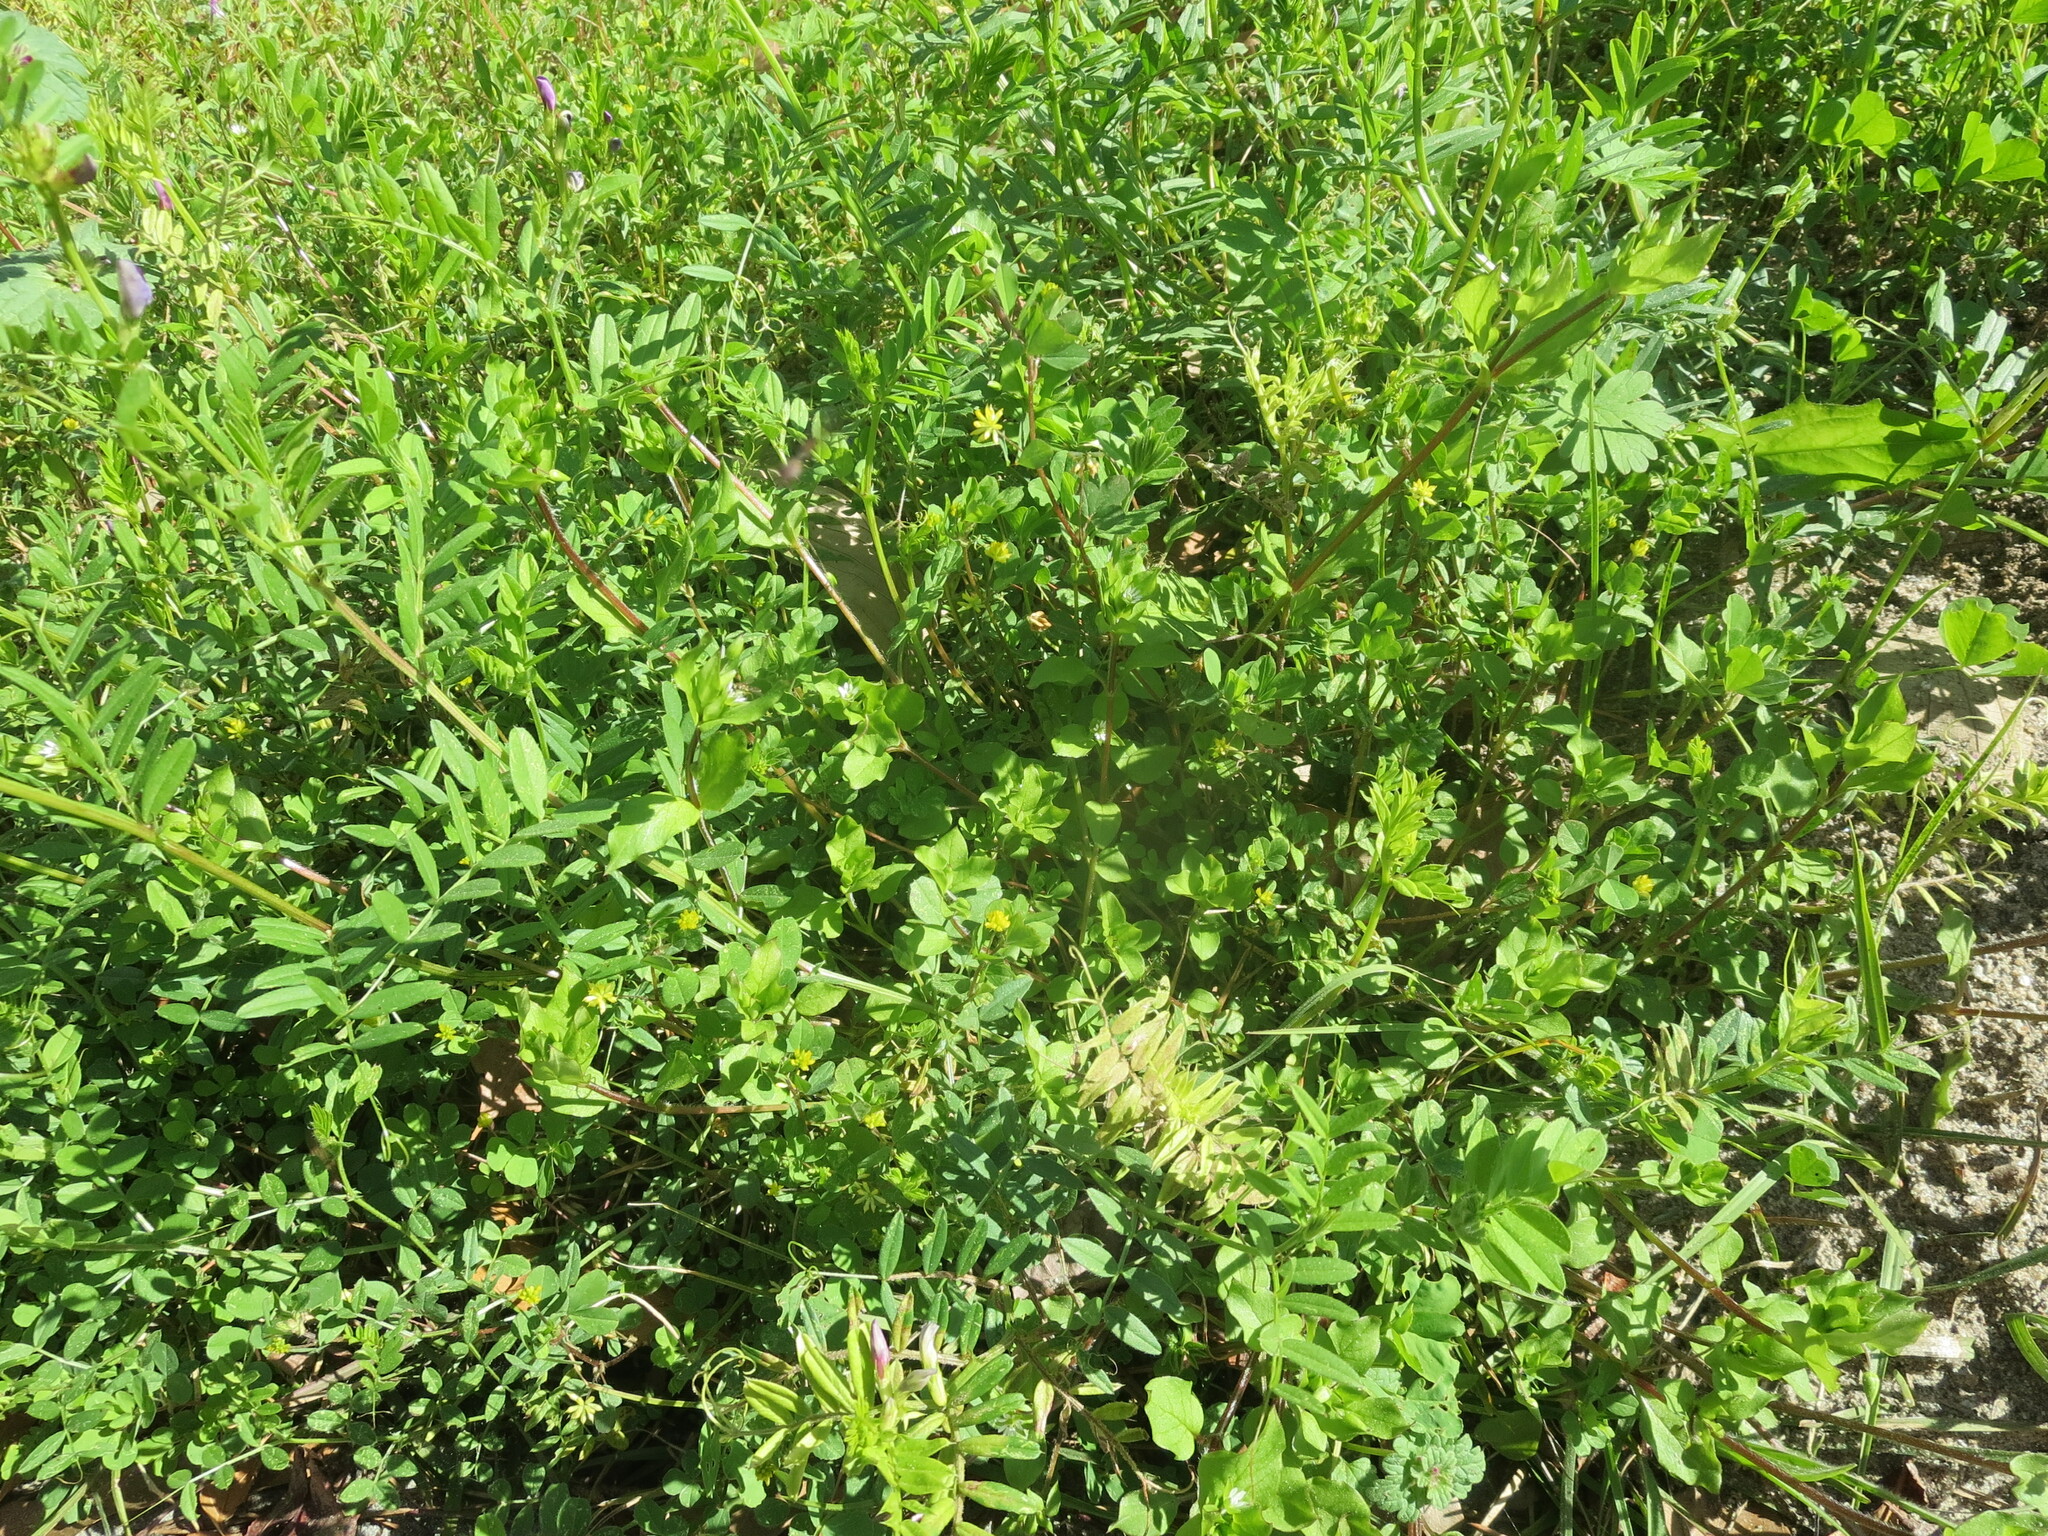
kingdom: Plantae
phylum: Tracheophyta
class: Magnoliopsida
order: Fabales
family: Fabaceae
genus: Vicia
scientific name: Vicia sativa
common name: Garden vetch
